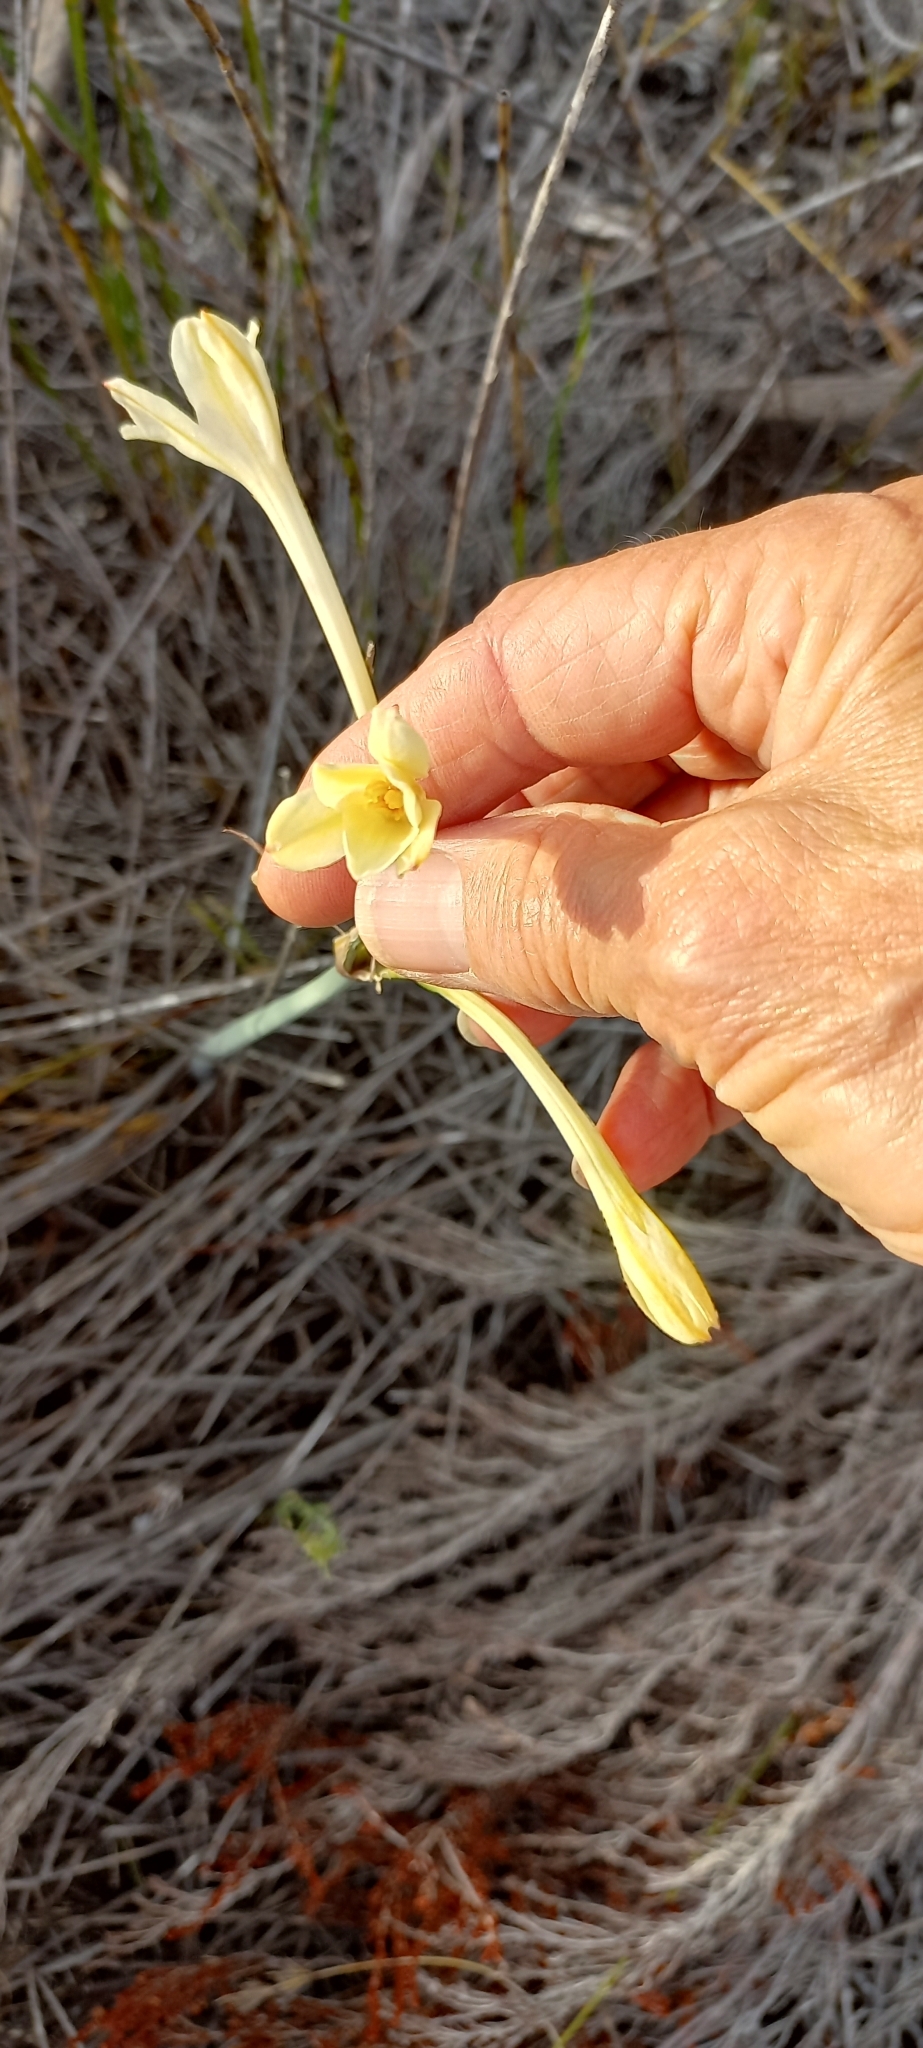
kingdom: Plantae
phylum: Tracheophyta
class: Liliopsida
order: Asparagales
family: Amaryllidaceae
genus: Cyrtanthus
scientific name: Cyrtanthus leucanthus
